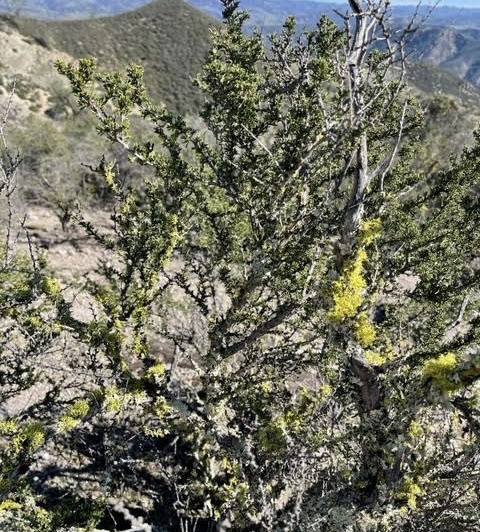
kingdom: Fungi
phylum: Ascomycota
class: Lecanoromycetes
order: Lecanorales
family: Parmeliaceae
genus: Letharia
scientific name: Letharia columbiana
